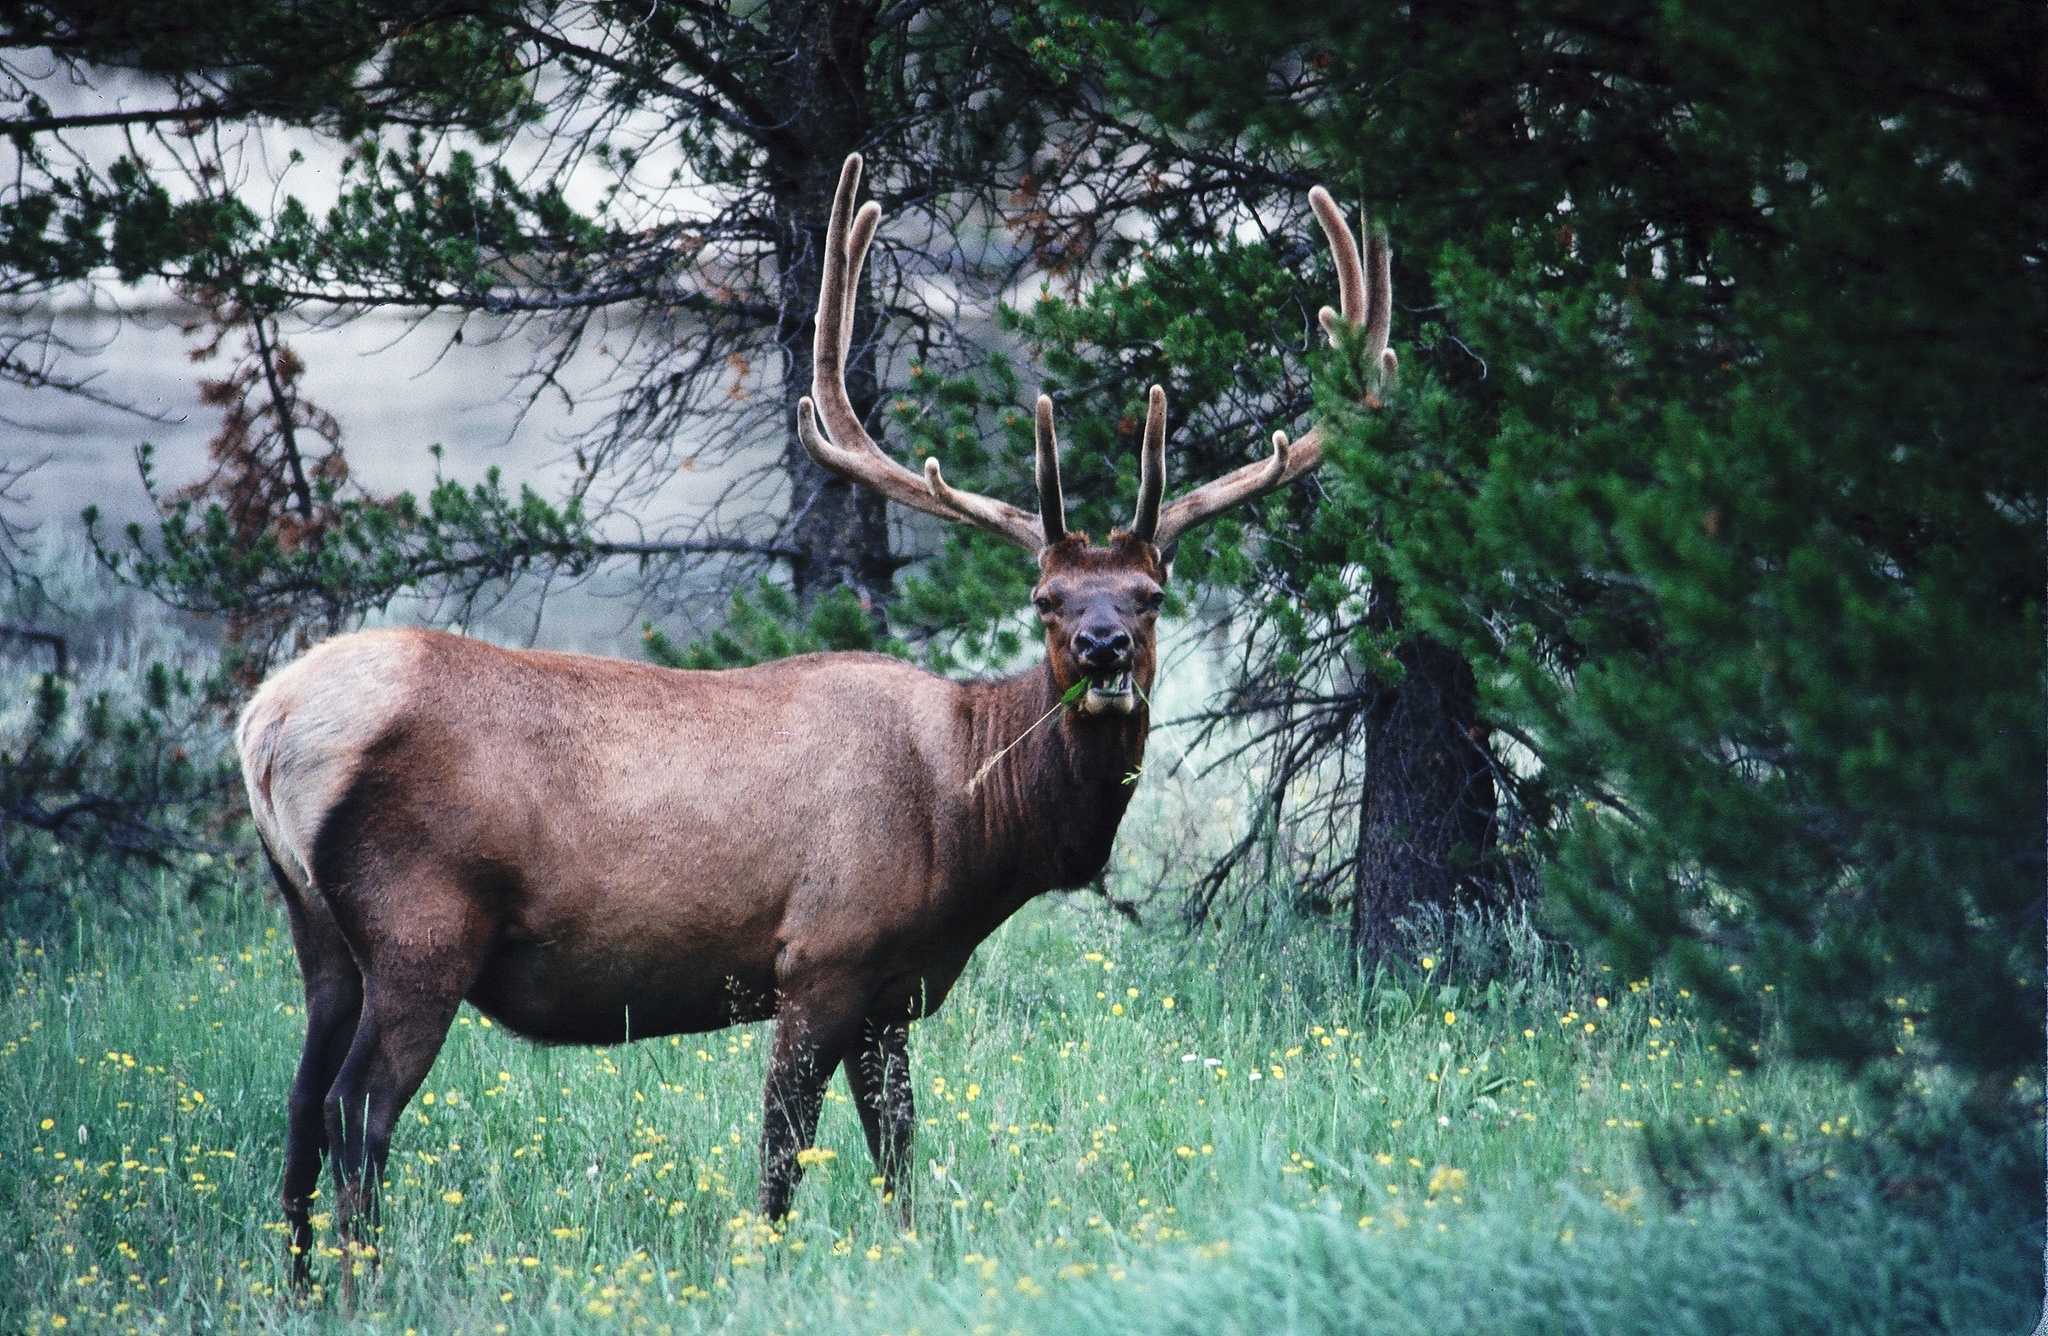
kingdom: Animalia
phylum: Chordata
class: Mammalia
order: Artiodactyla
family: Cervidae
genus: Cervus
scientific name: Cervus elaphus
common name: Red deer
